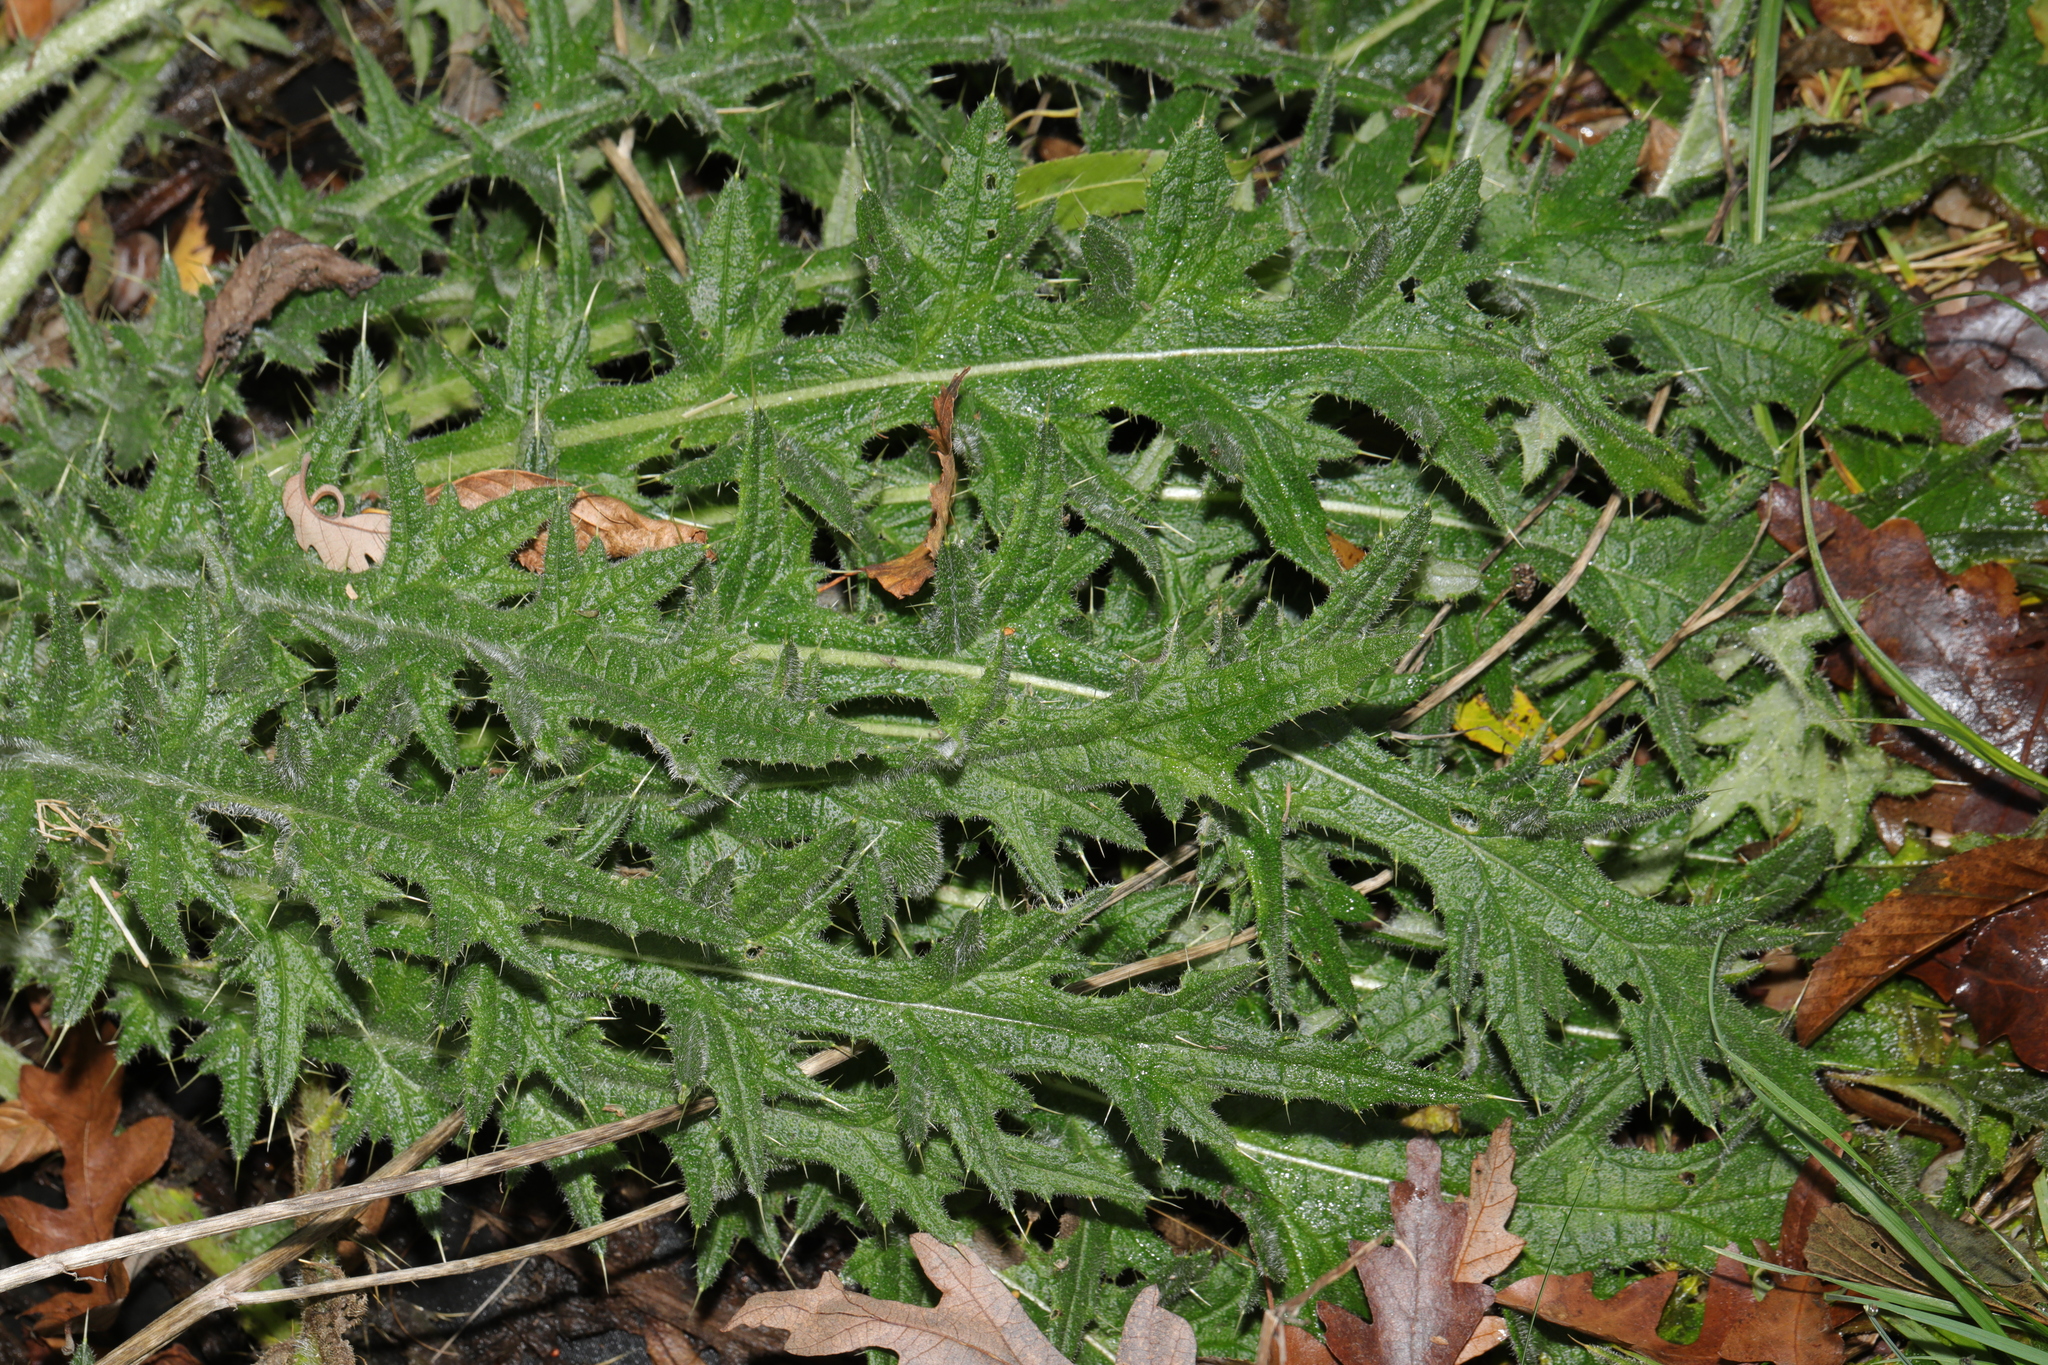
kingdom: Plantae
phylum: Tracheophyta
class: Magnoliopsida
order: Asterales
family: Asteraceae
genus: Cirsium
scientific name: Cirsium vulgare
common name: Bull thistle
